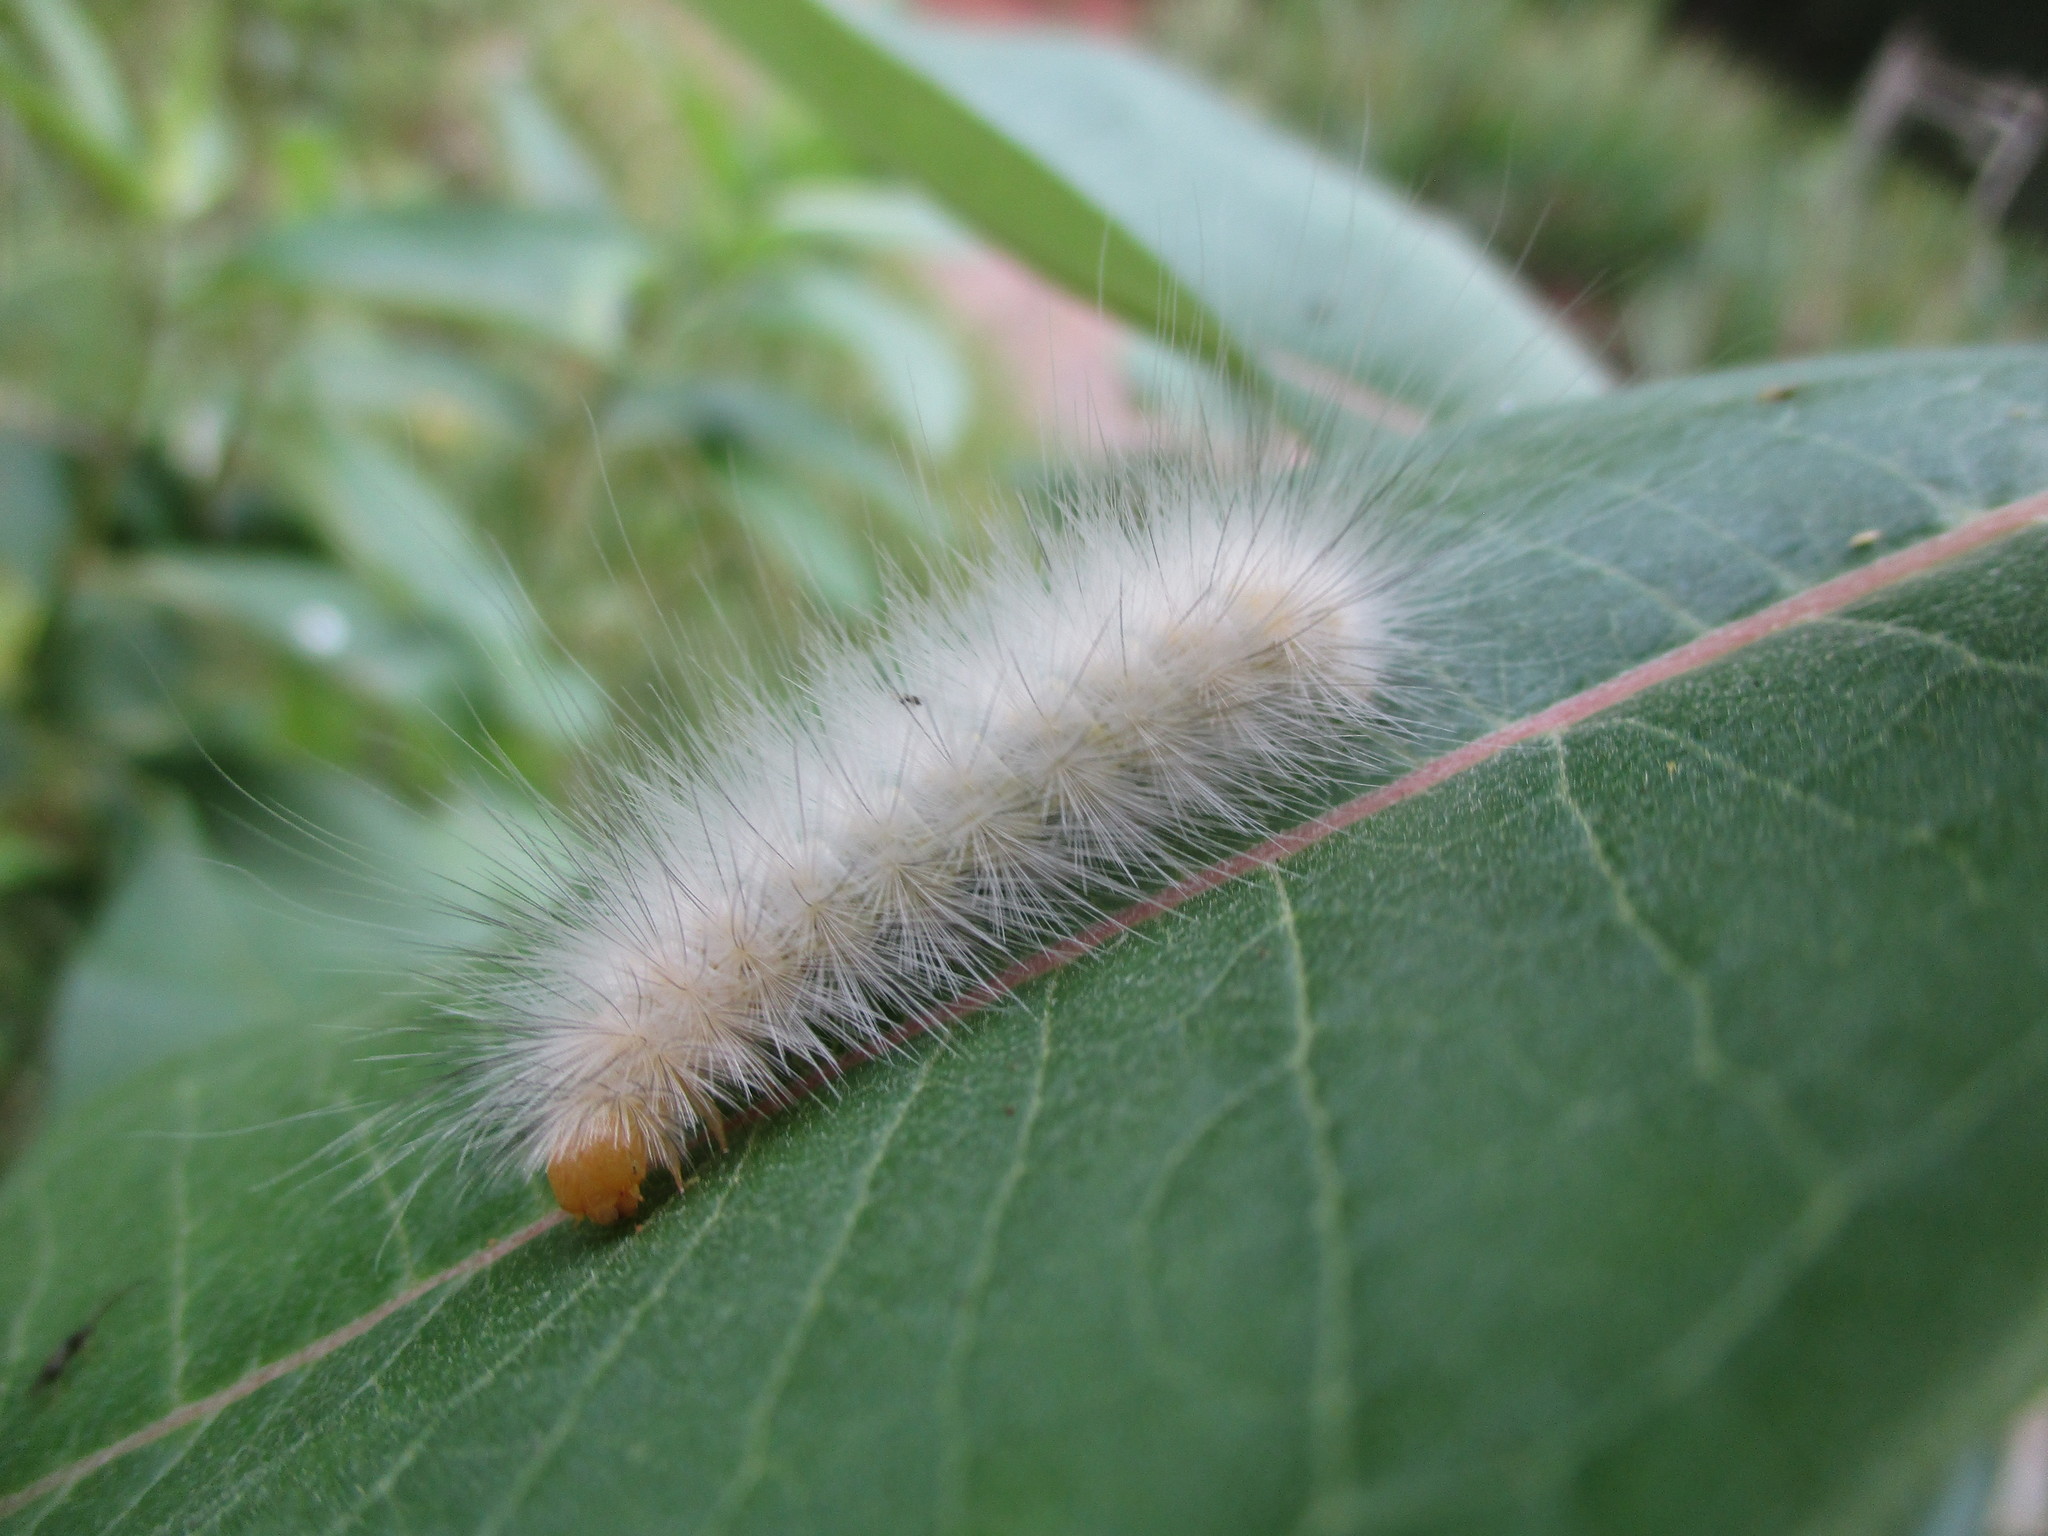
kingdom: Animalia
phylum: Arthropoda
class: Insecta
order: Lepidoptera
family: Erebidae
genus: Spilosoma
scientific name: Spilosoma virginica
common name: Virginia tiger moth
